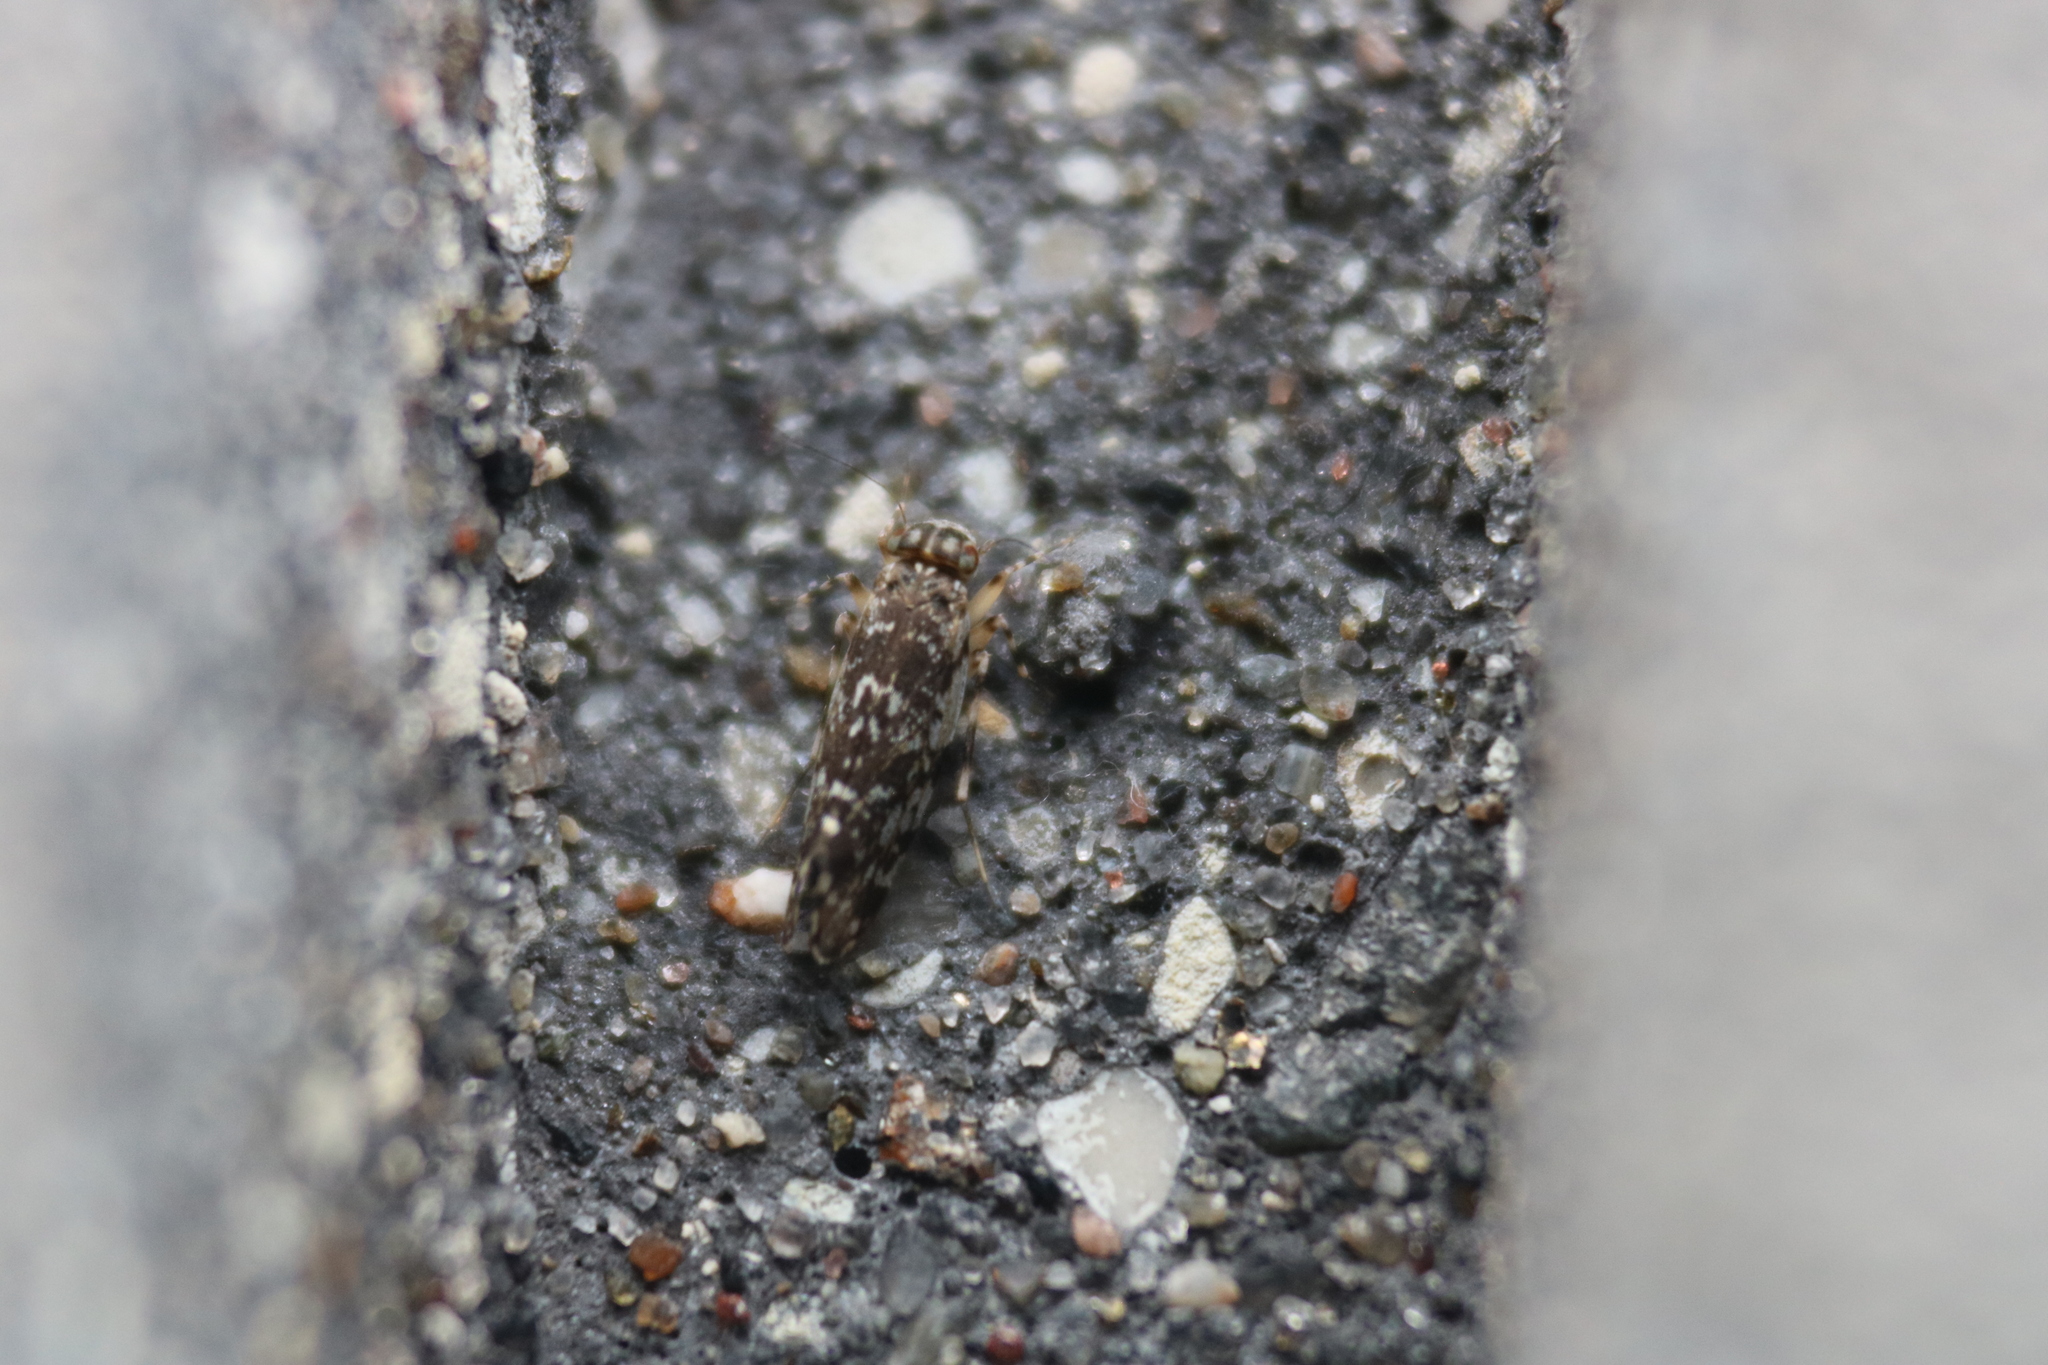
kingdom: Animalia
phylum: Arthropoda
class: Insecta
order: Psocodea
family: Amphientomidae
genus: Stimulopalpus
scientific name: Stimulopalpus japonicus
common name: Tropical bark louse
